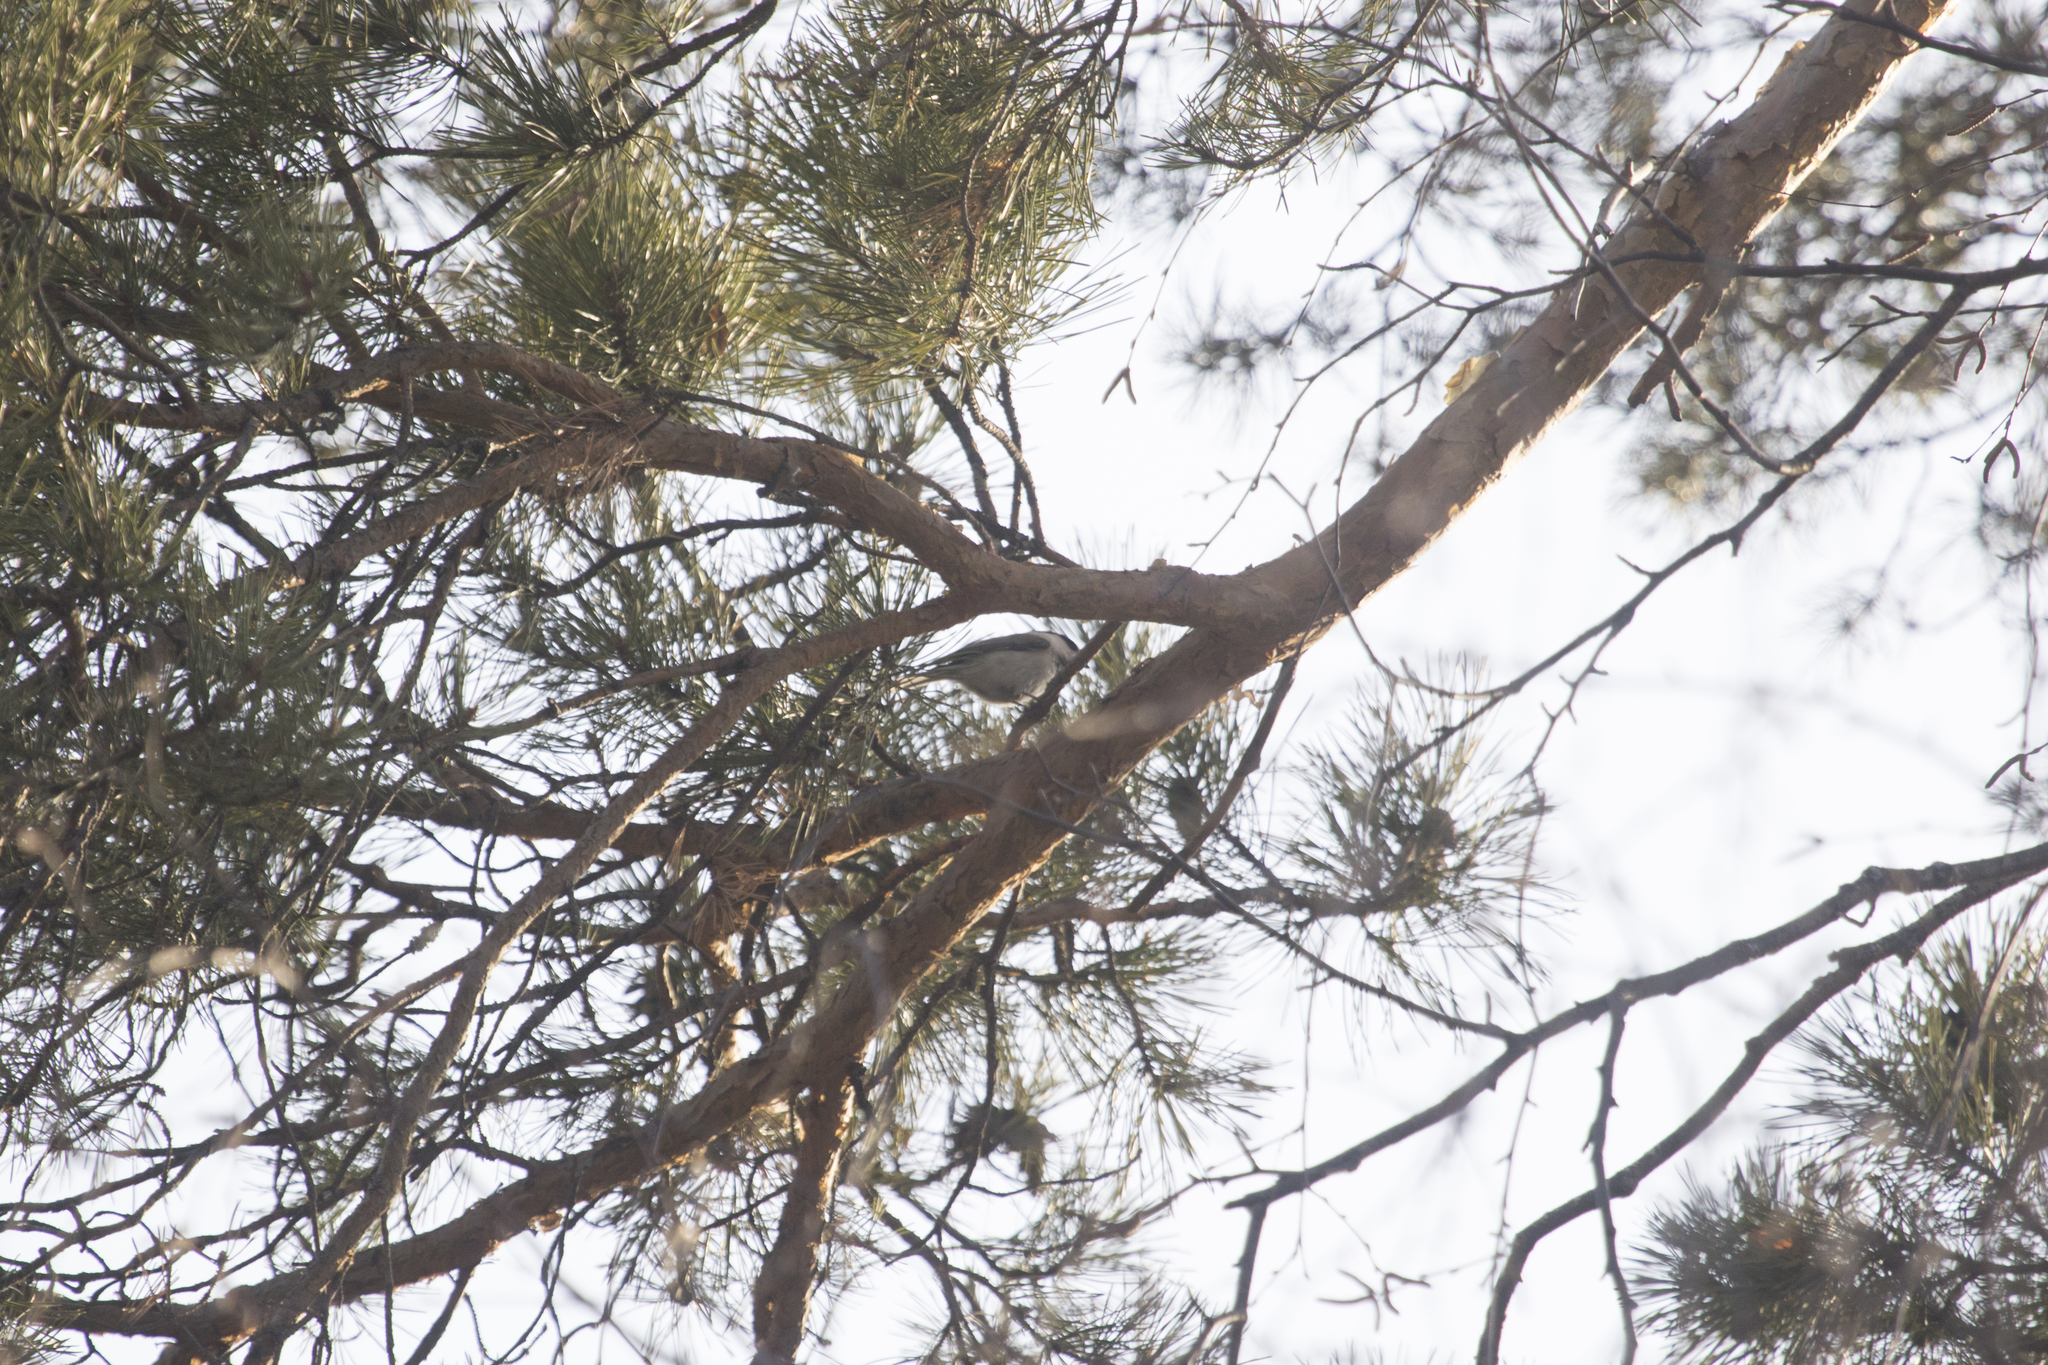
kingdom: Animalia
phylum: Chordata
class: Aves
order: Passeriformes
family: Paridae
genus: Poecile
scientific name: Poecile palustris
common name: Marsh tit
